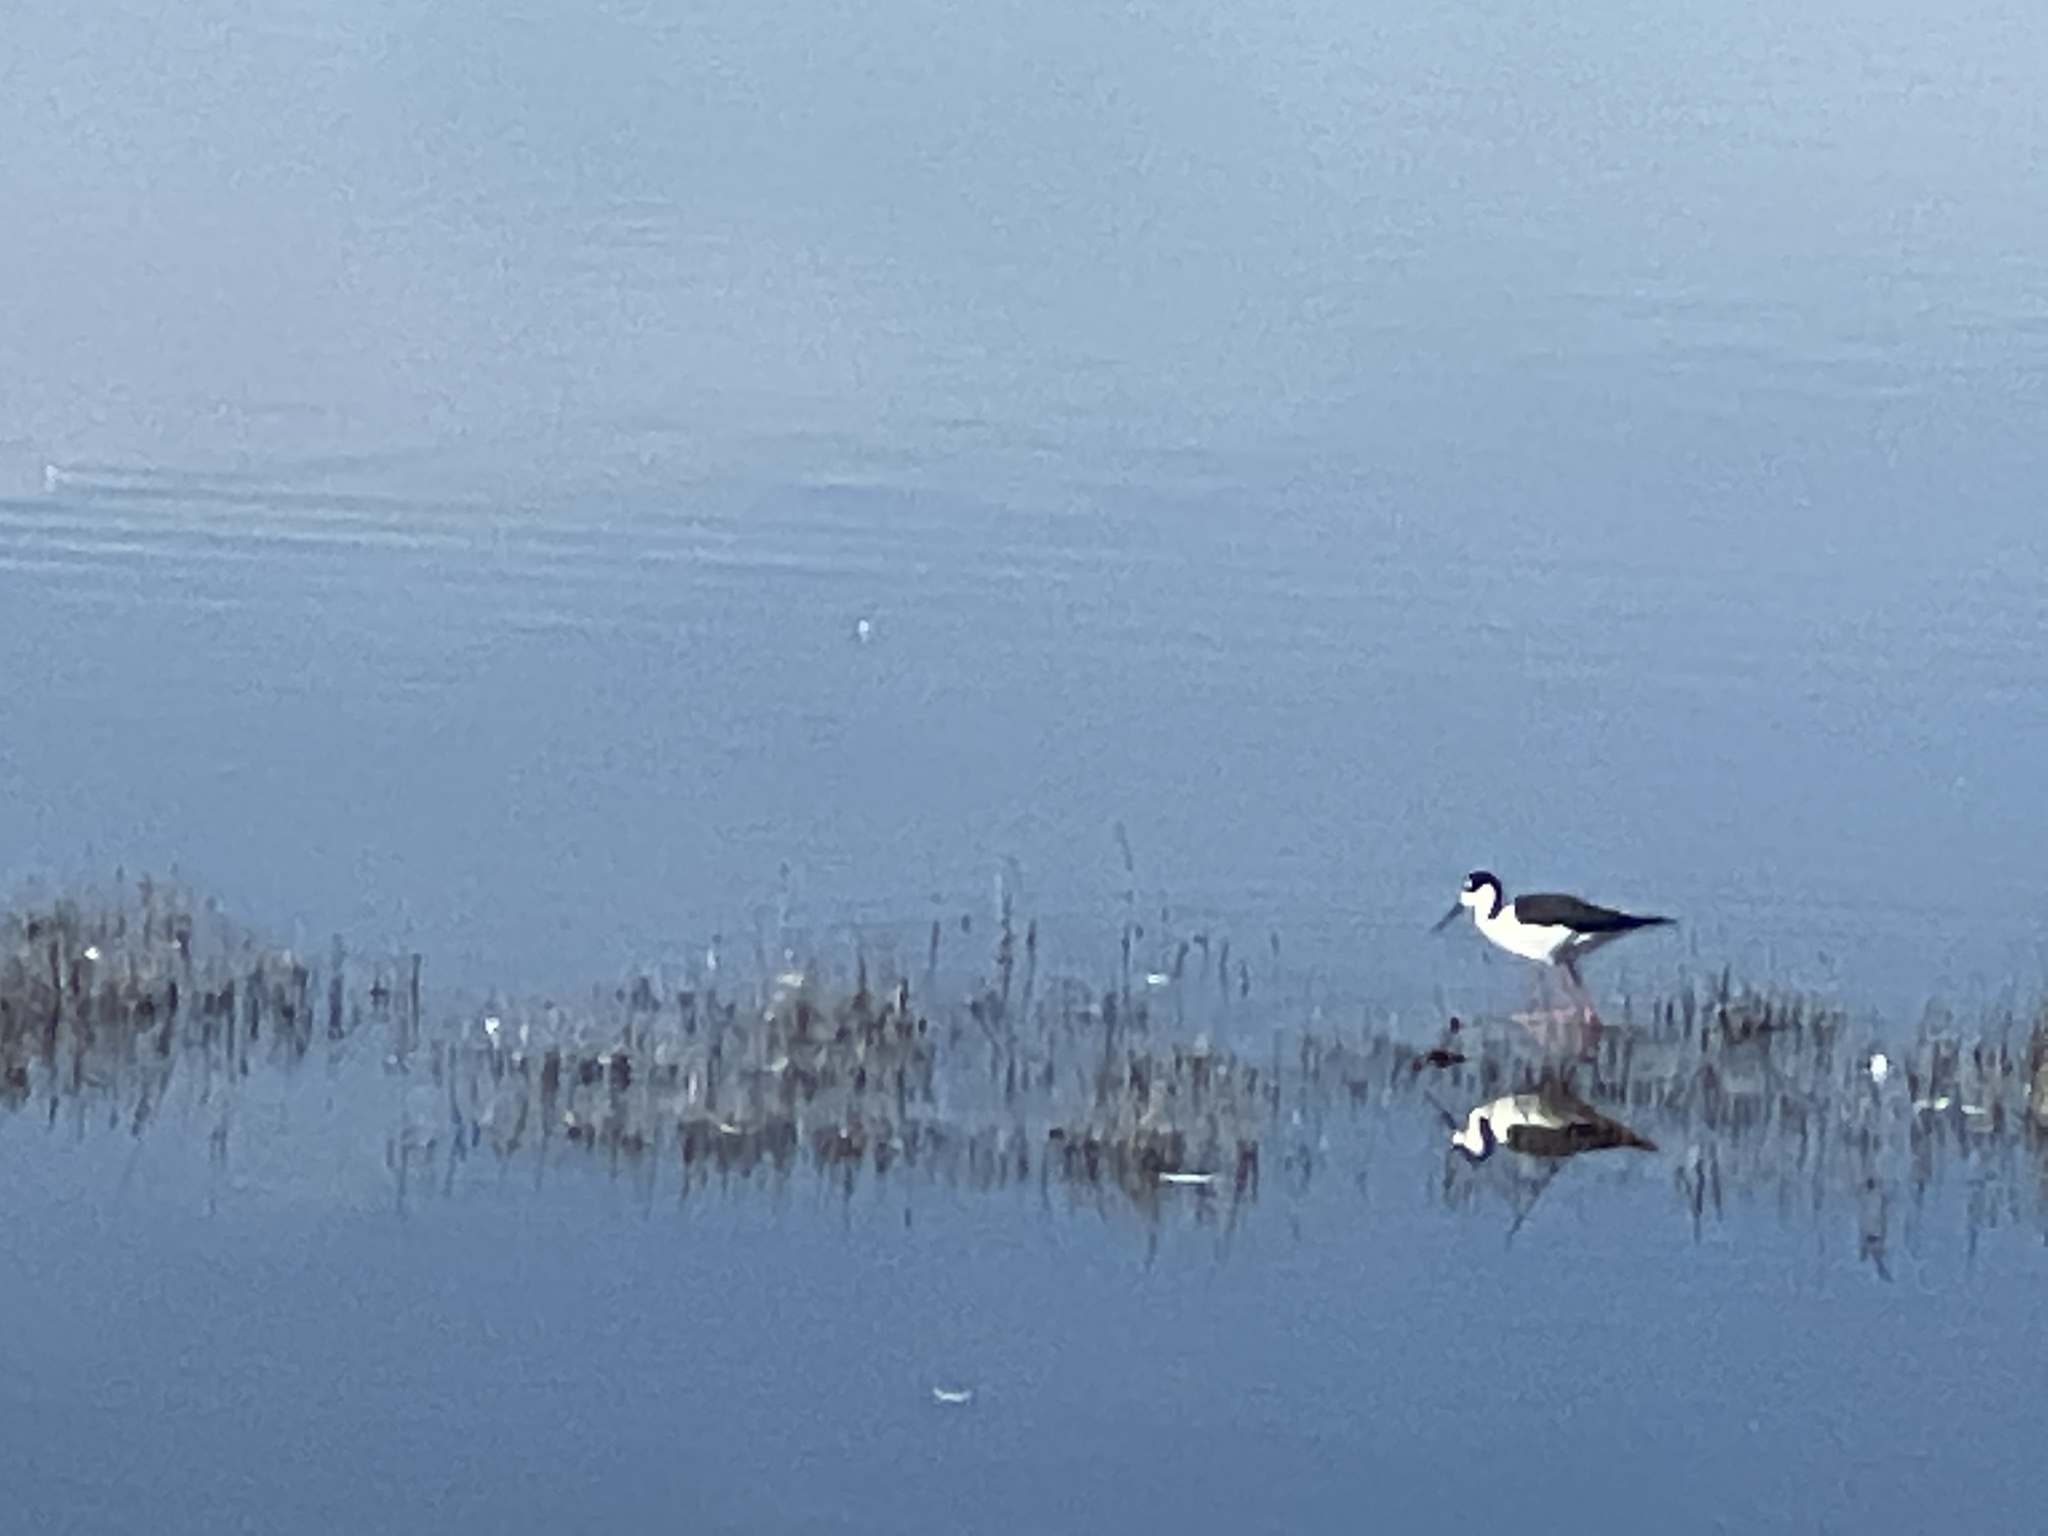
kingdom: Animalia
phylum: Chordata
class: Aves
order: Charadriiformes
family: Recurvirostridae
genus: Himantopus
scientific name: Himantopus mexicanus
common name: Black-necked stilt
